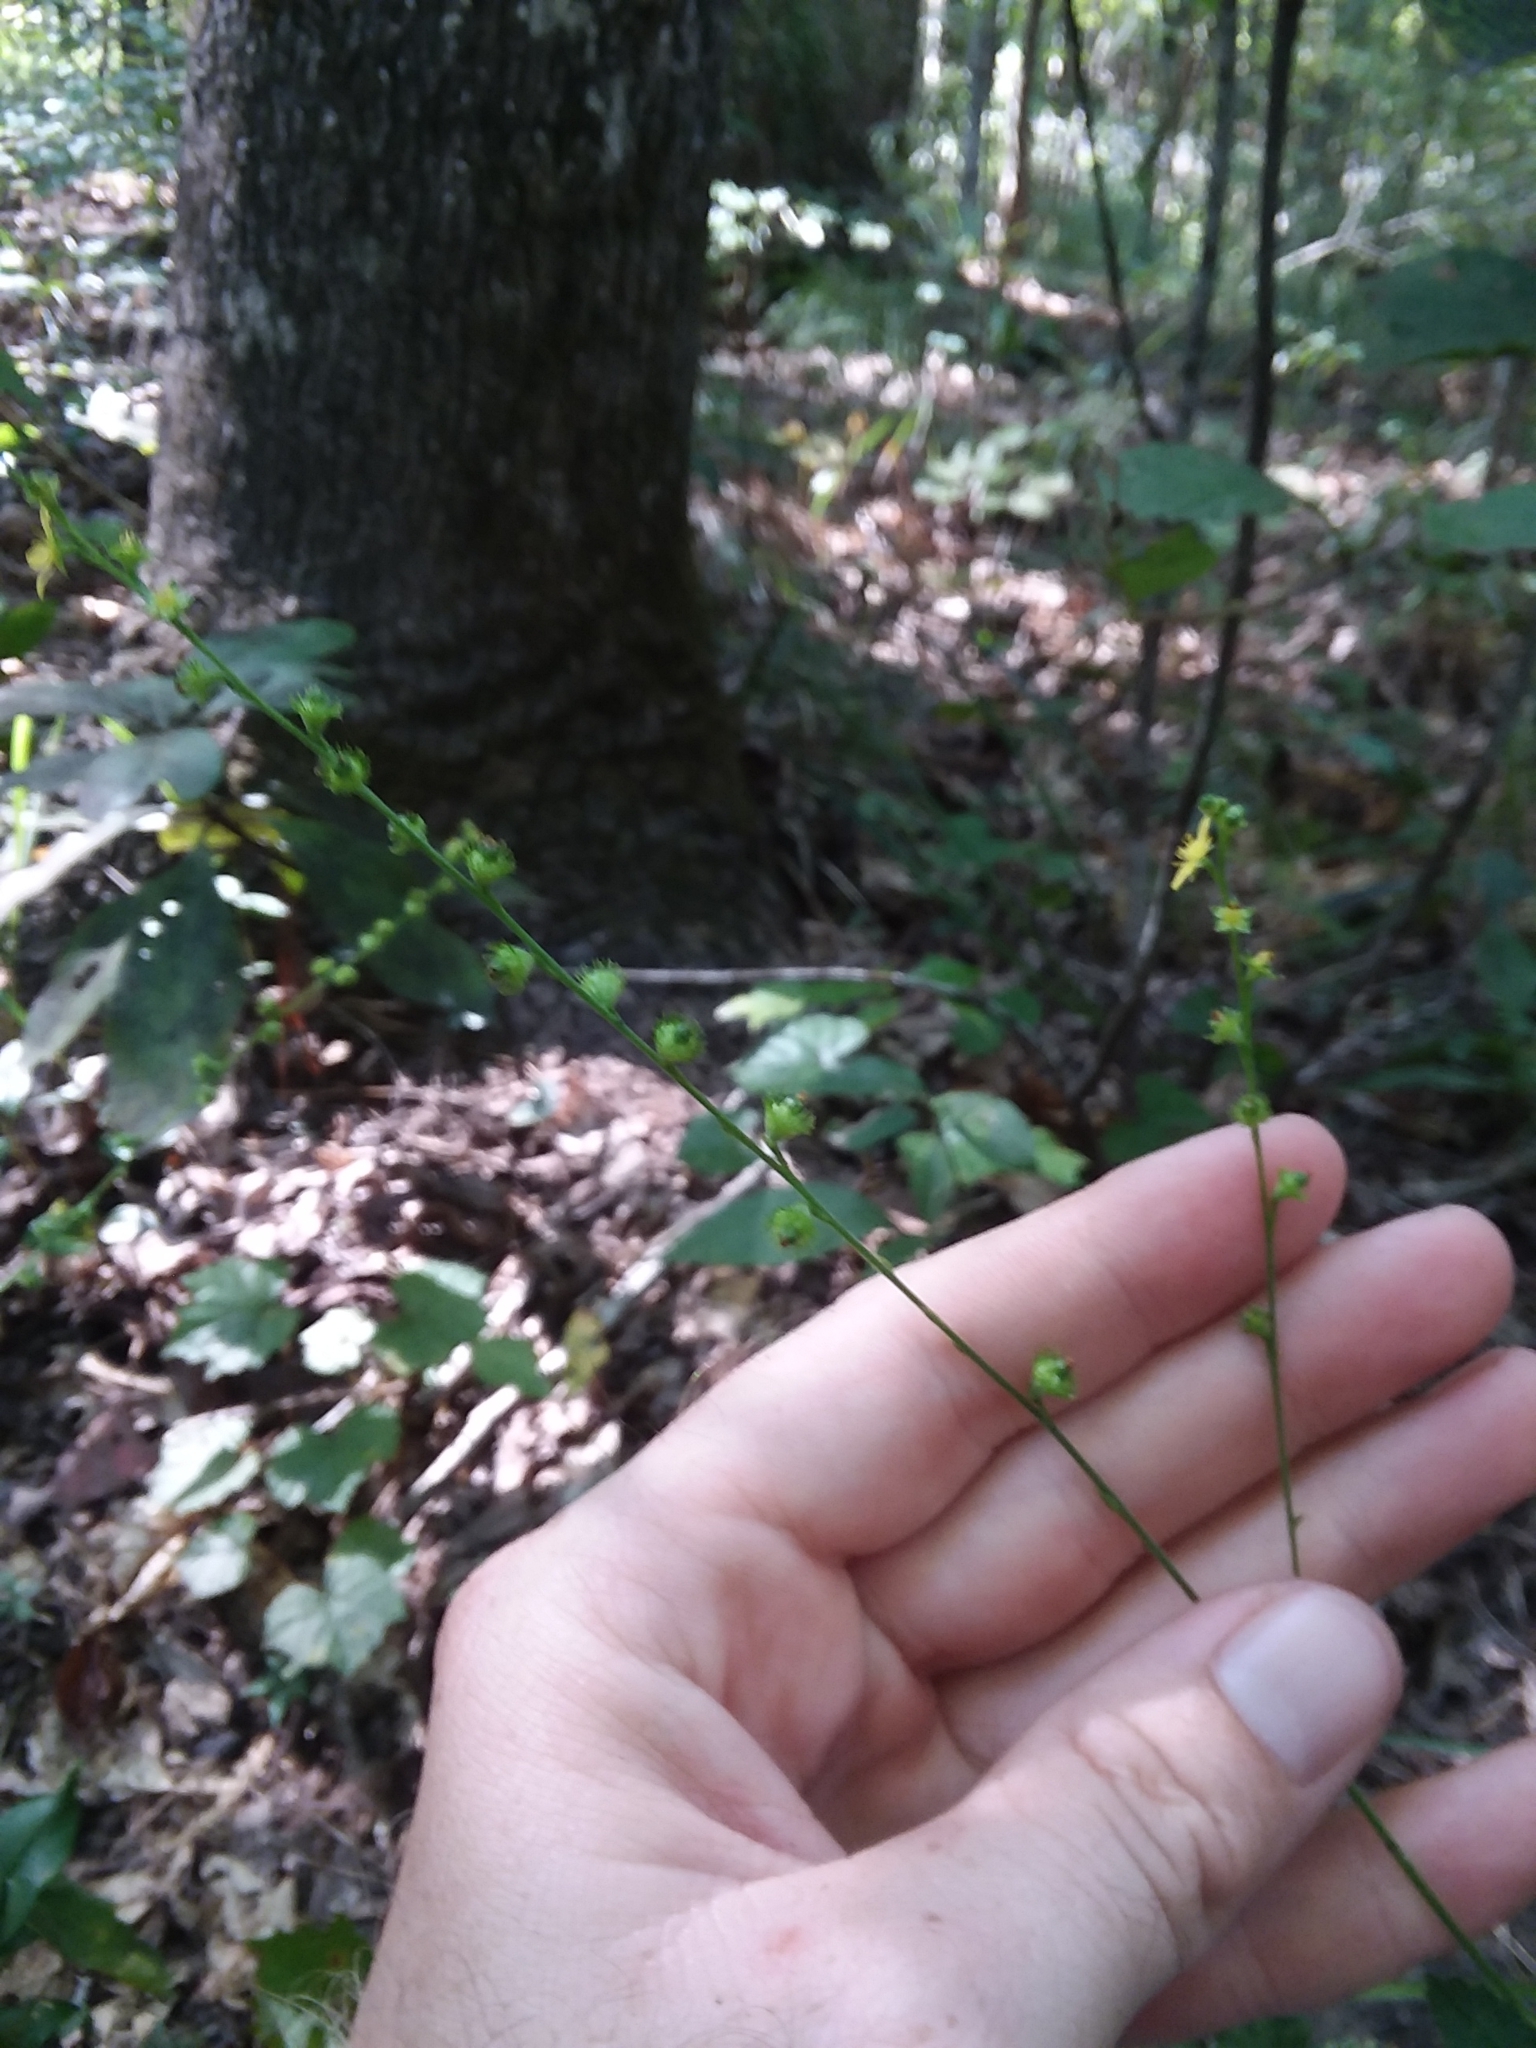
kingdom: Plantae
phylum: Tracheophyta
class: Magnoliopsida
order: Rosales
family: Rosaceae
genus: Agrimonia
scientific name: Agrimonia microcarpa
